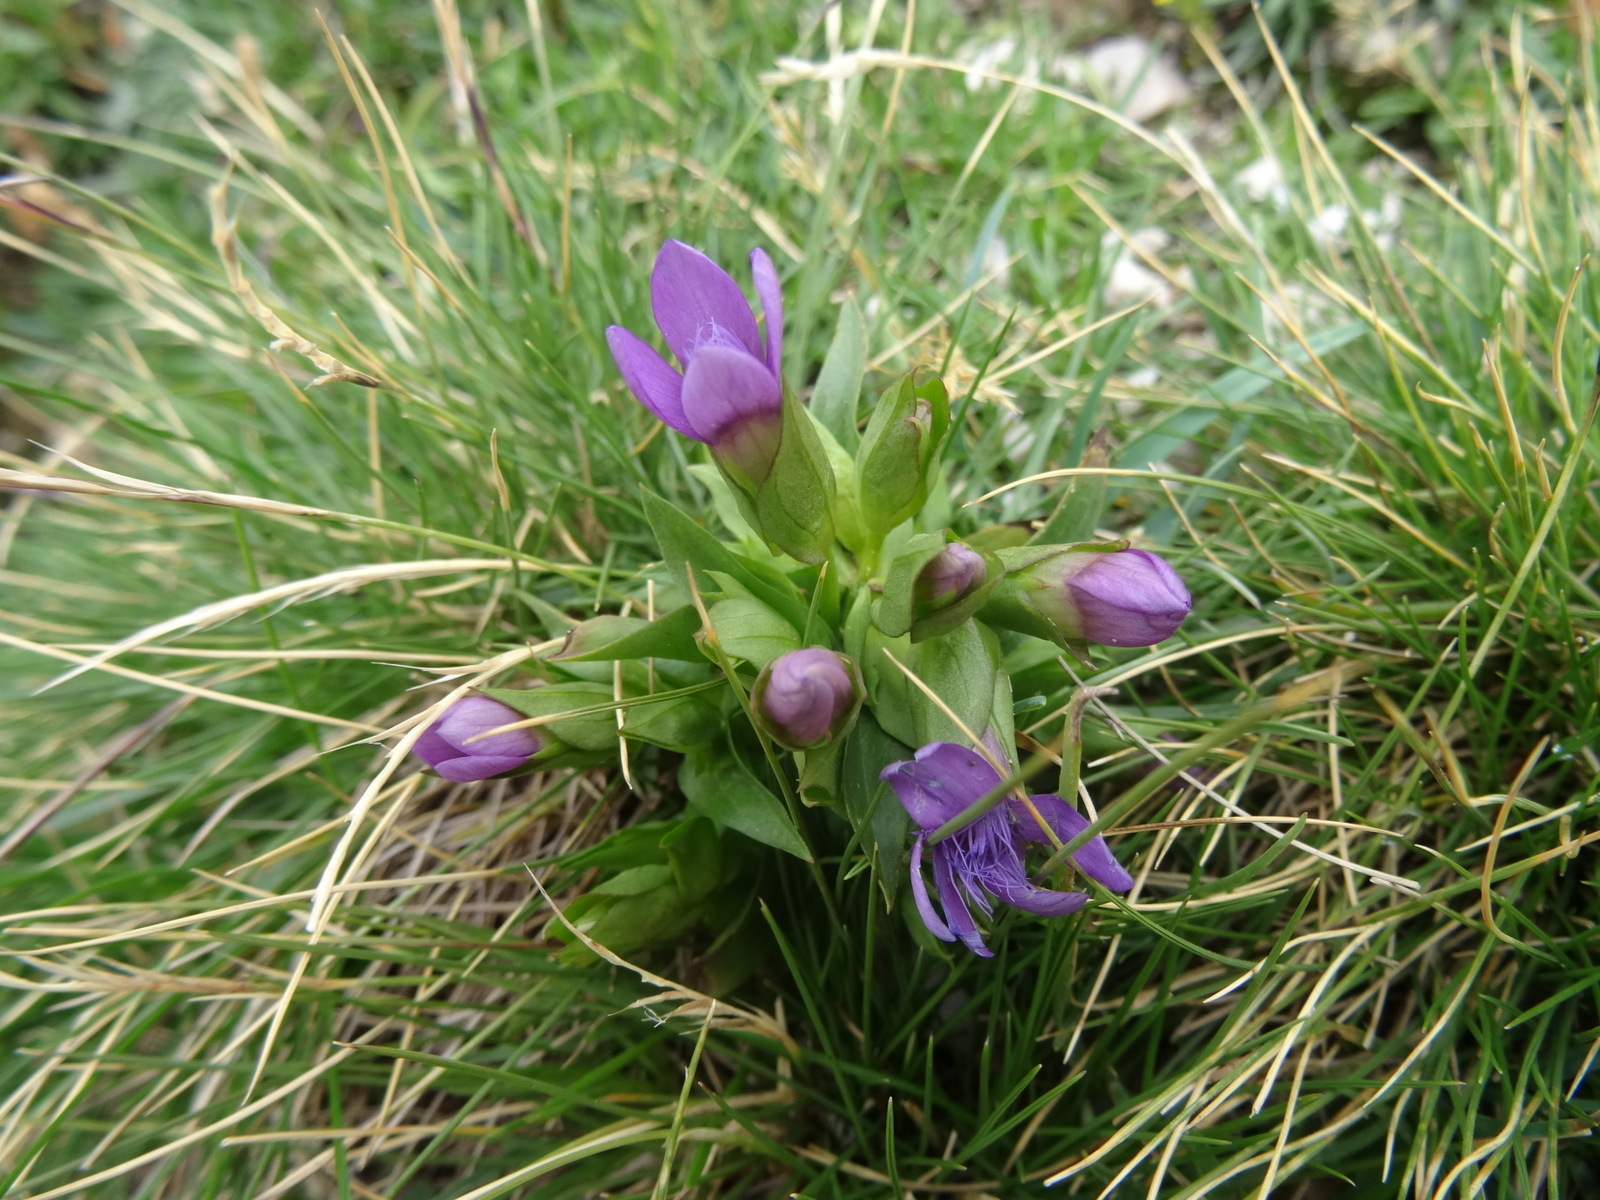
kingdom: Plantae
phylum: Tracheophyta
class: Magnoliopsida
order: Gentianales
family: Gentianaceae
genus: Gentianella
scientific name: Gentianella campestris
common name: Field gentian
